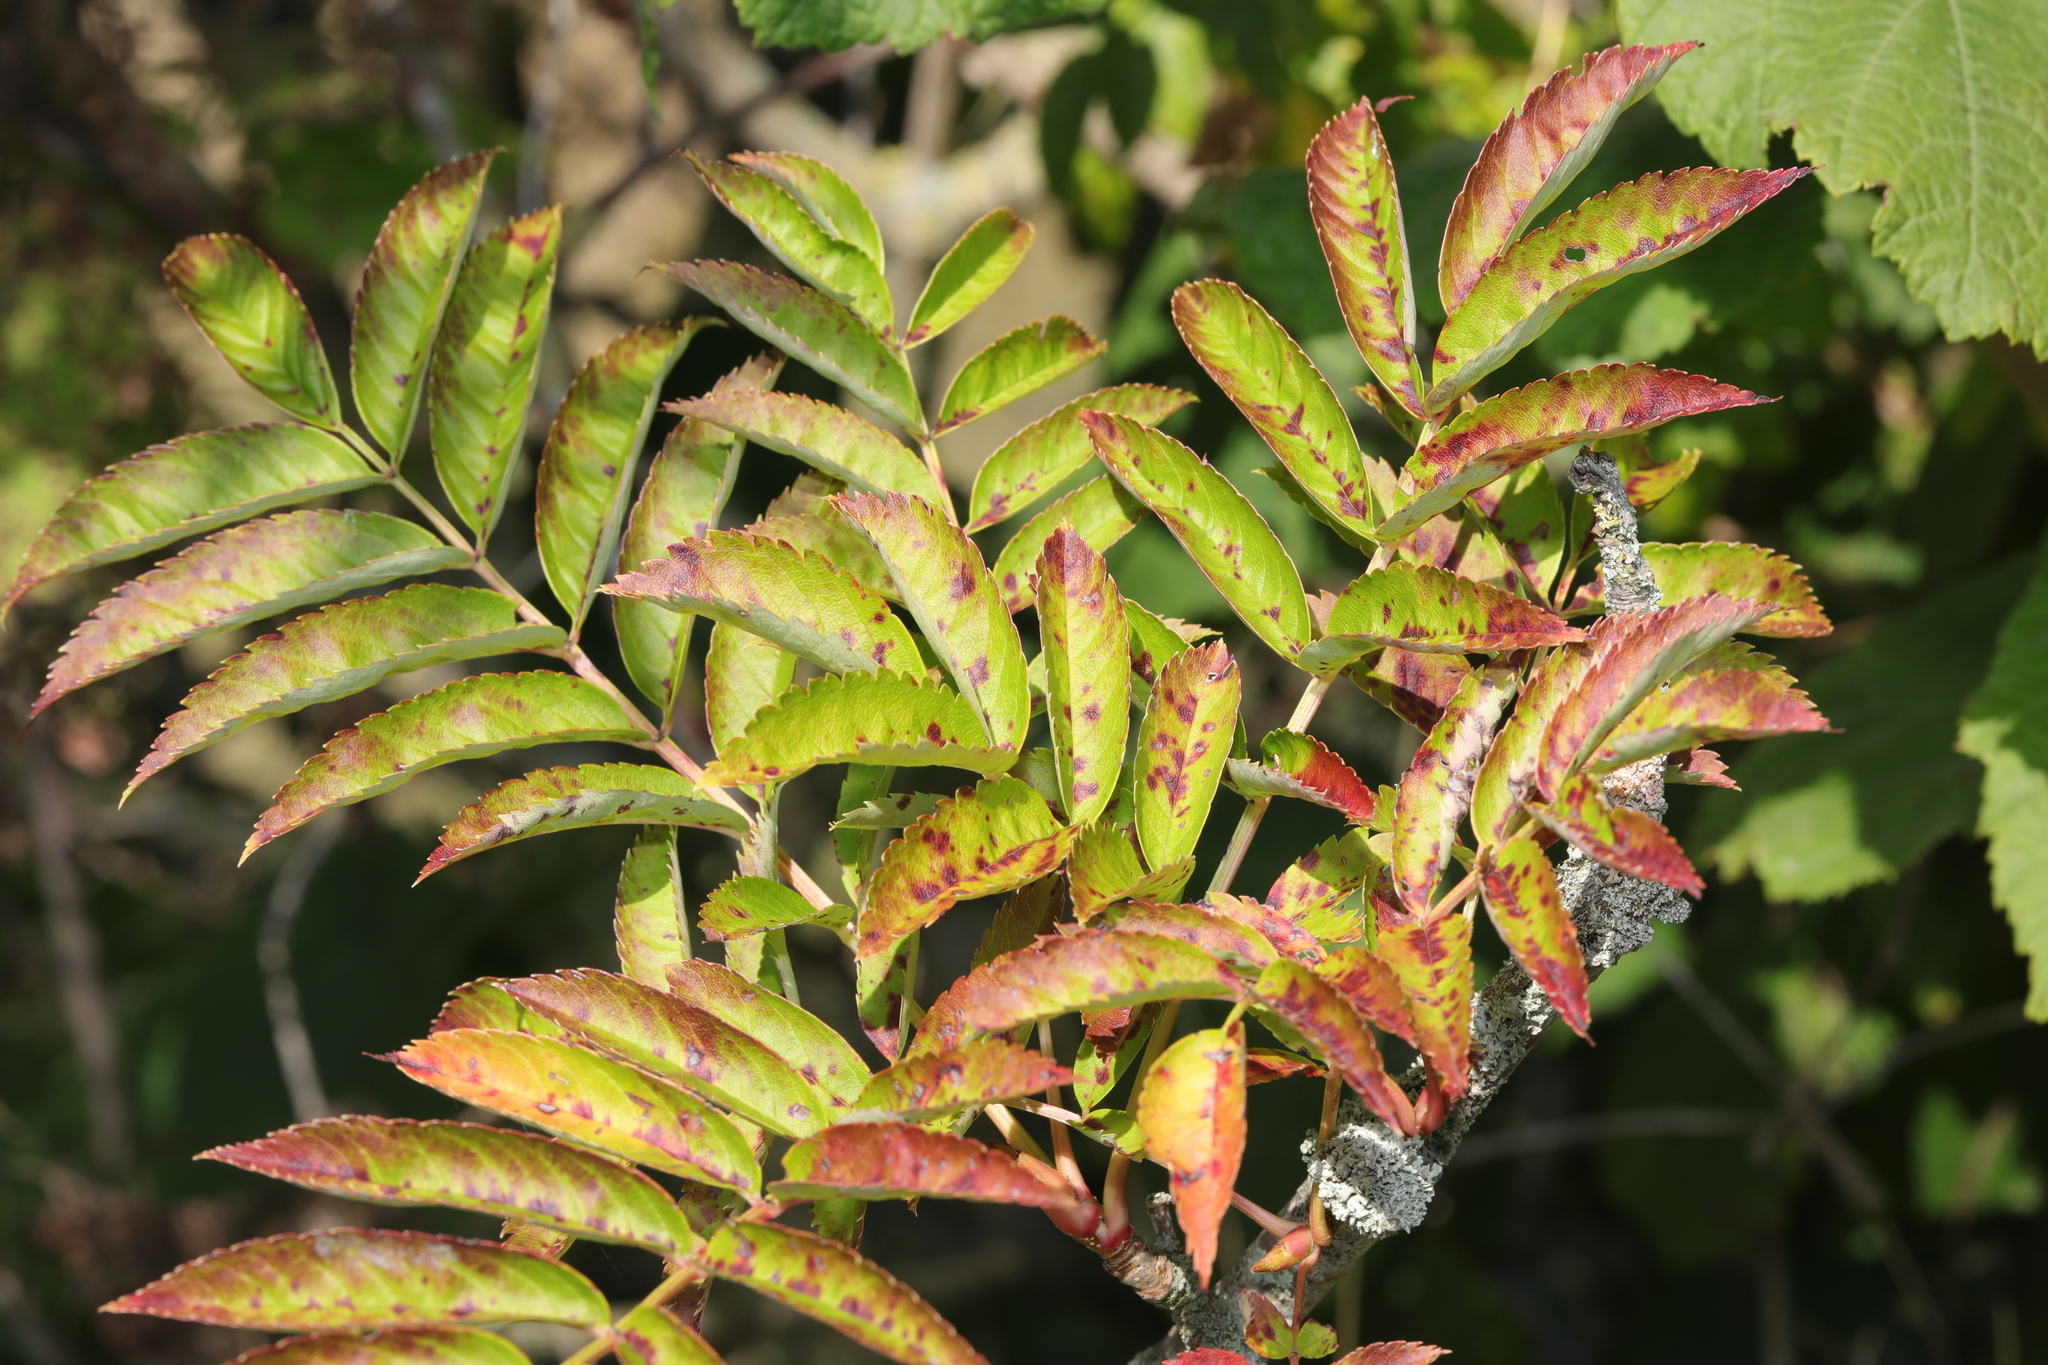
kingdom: Plantae
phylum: Tracheophyta
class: Magnoliopsida
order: Rosales
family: Rosaceae
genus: Sorbus
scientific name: Sorbus aucuparia
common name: Rowan
